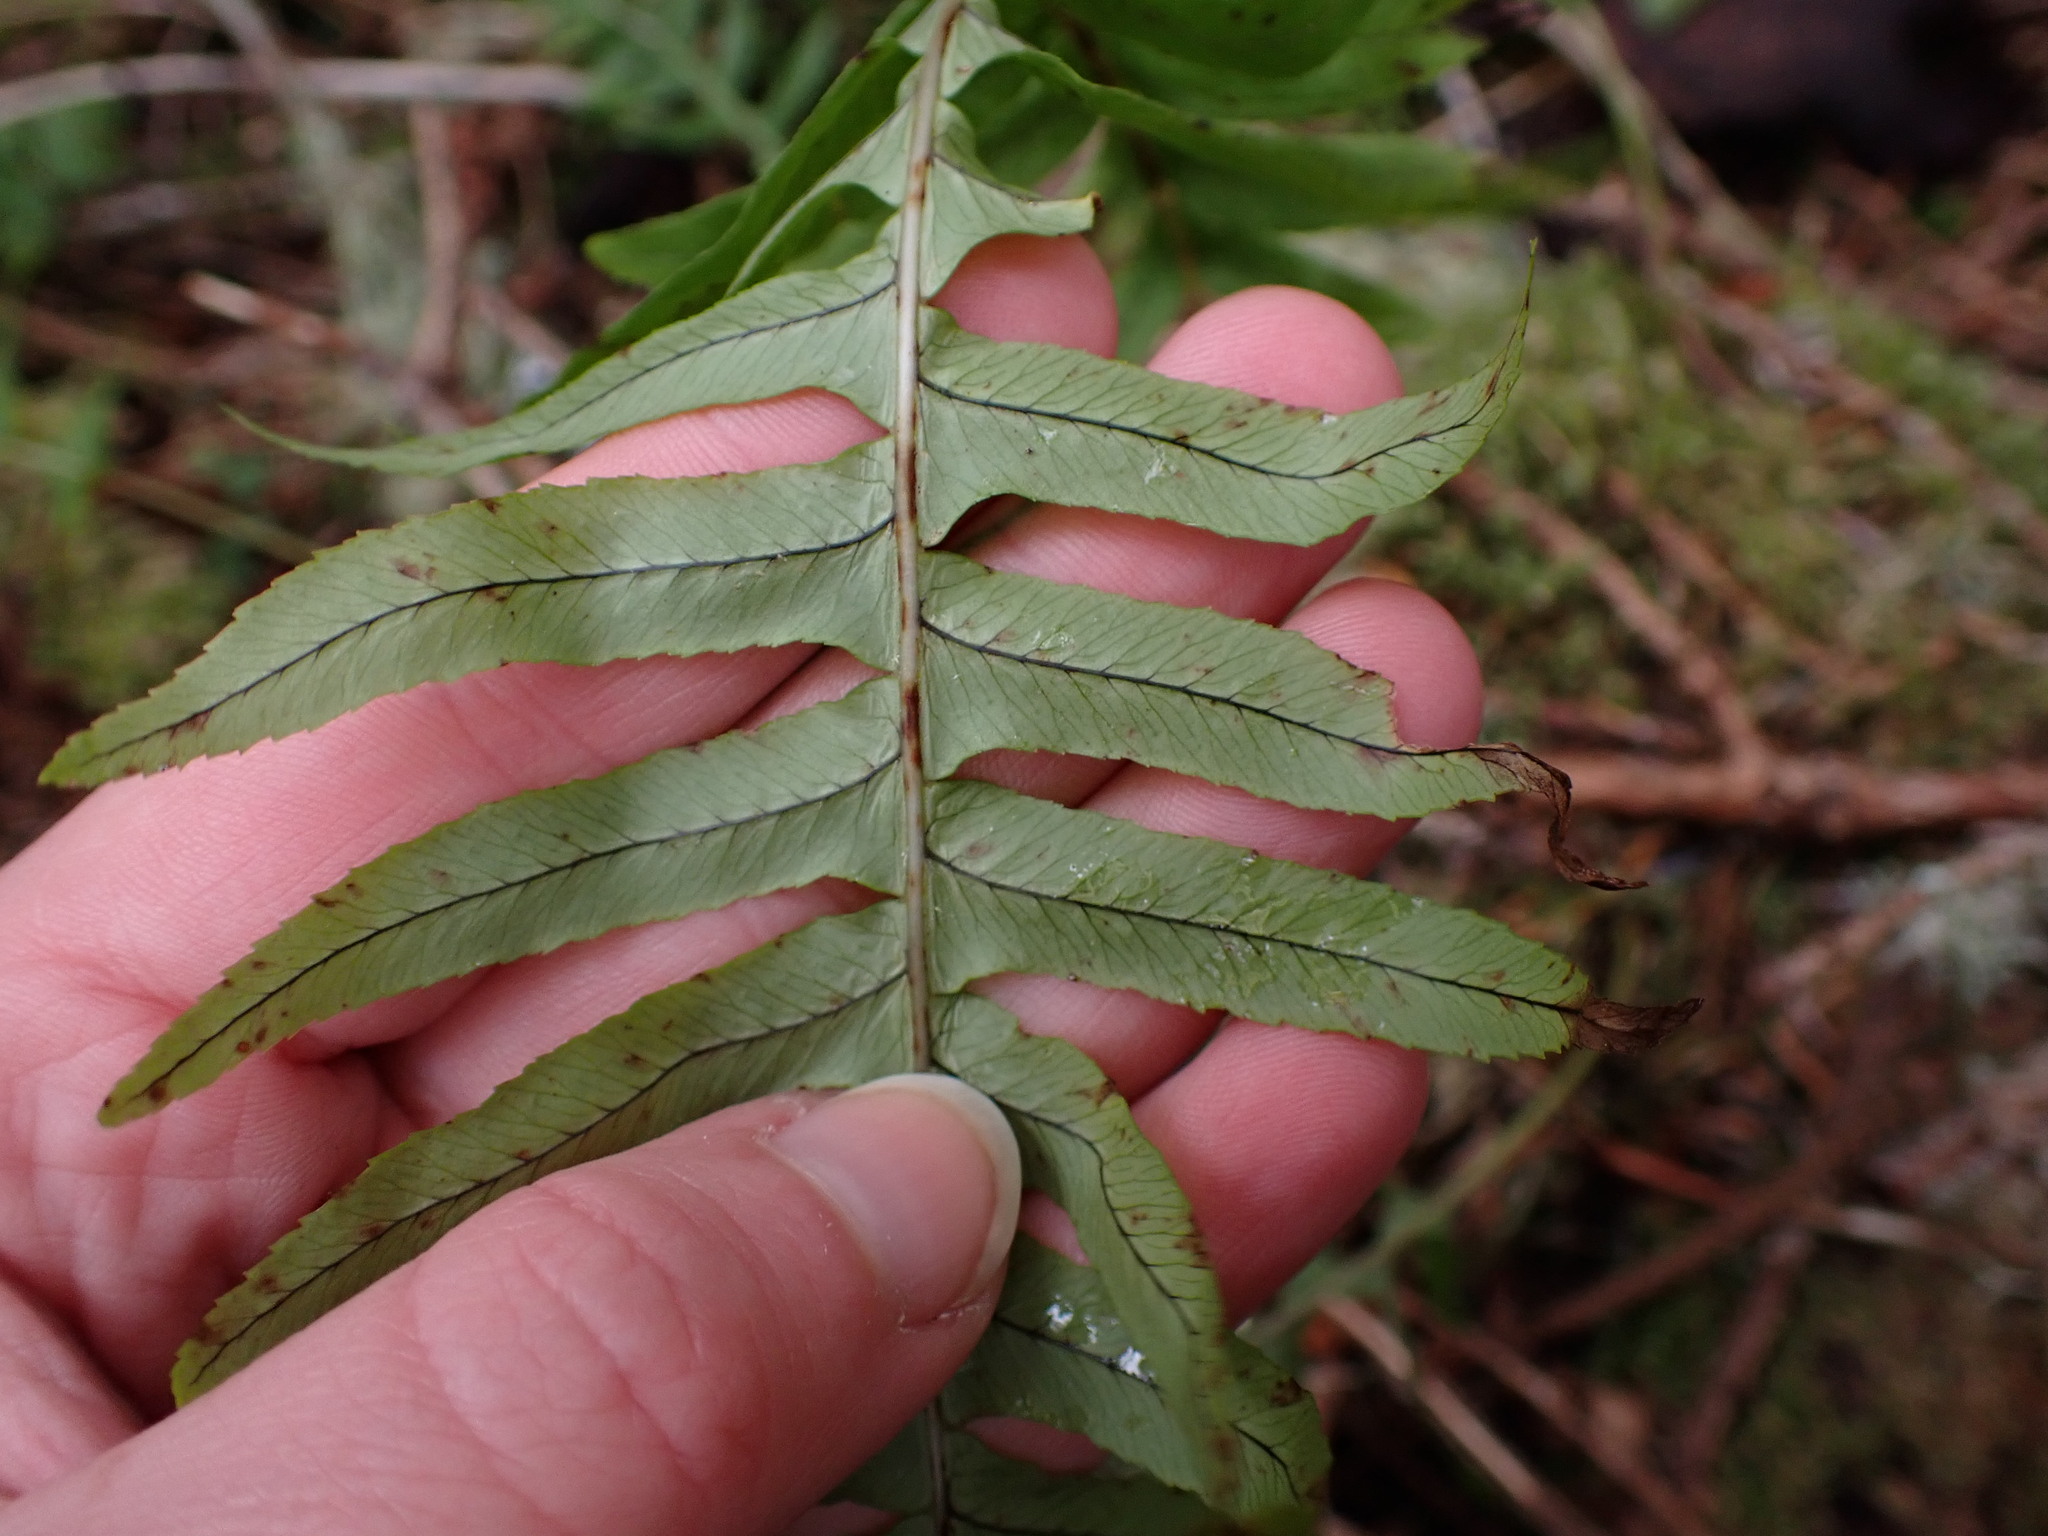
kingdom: Plantae
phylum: Tracheophyta
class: Polypodiopsida
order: Polypodiales
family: Polypodiaceae
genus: Polypodium
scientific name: Polypodium glycyrrhiza
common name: Licorice fern
